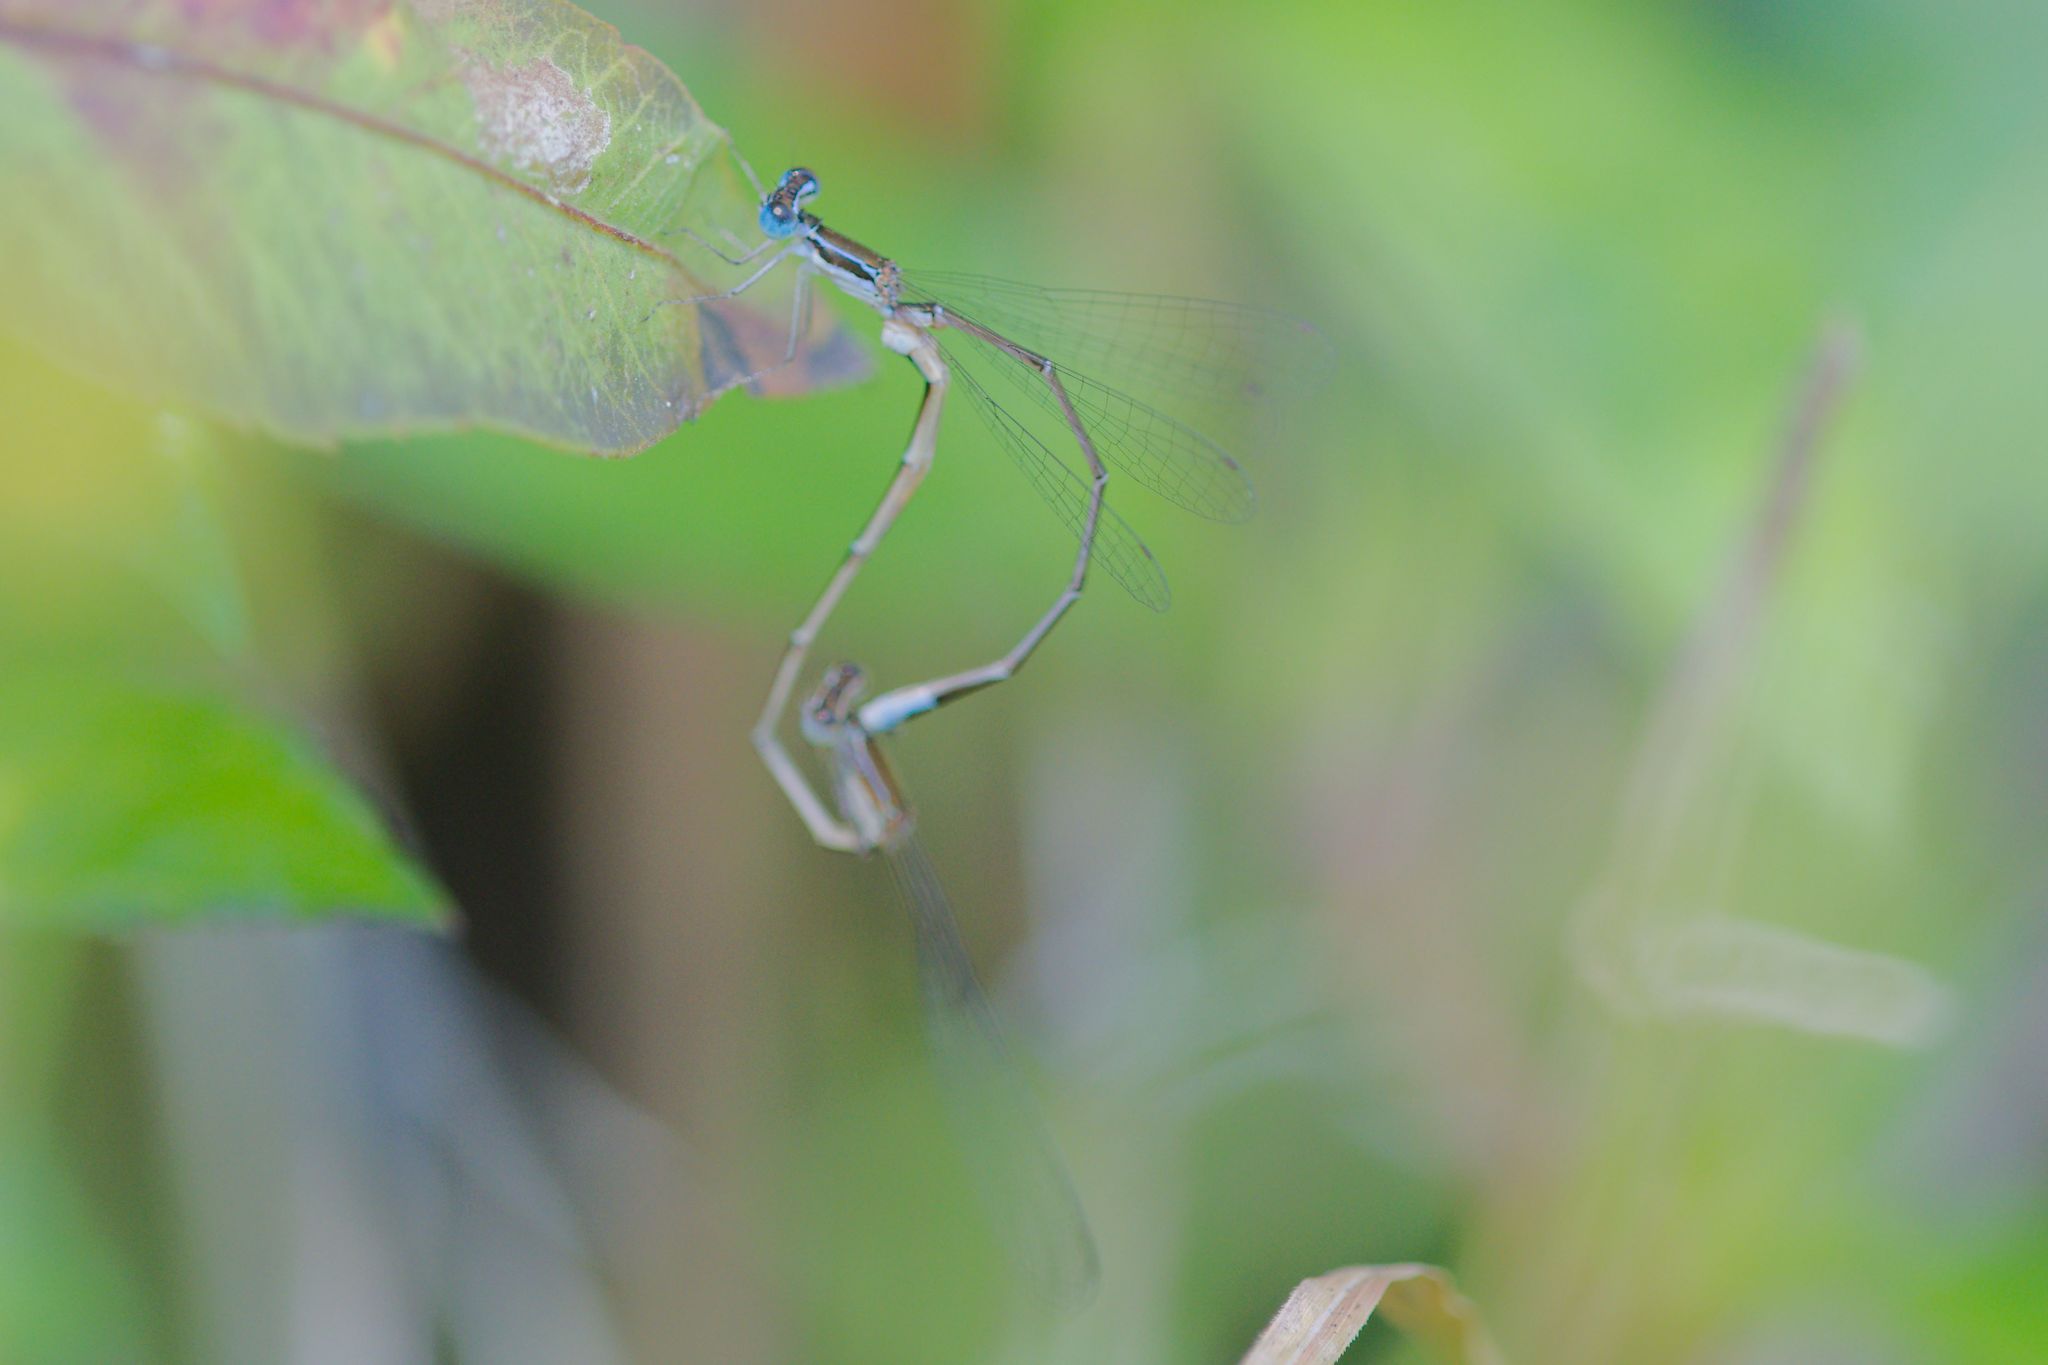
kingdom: Animalia
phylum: Arthropoda
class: Insecta
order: Odonata
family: Coenagrionidae
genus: Nehalennia
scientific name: Nehalennia pallidula
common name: Everglades sprite
